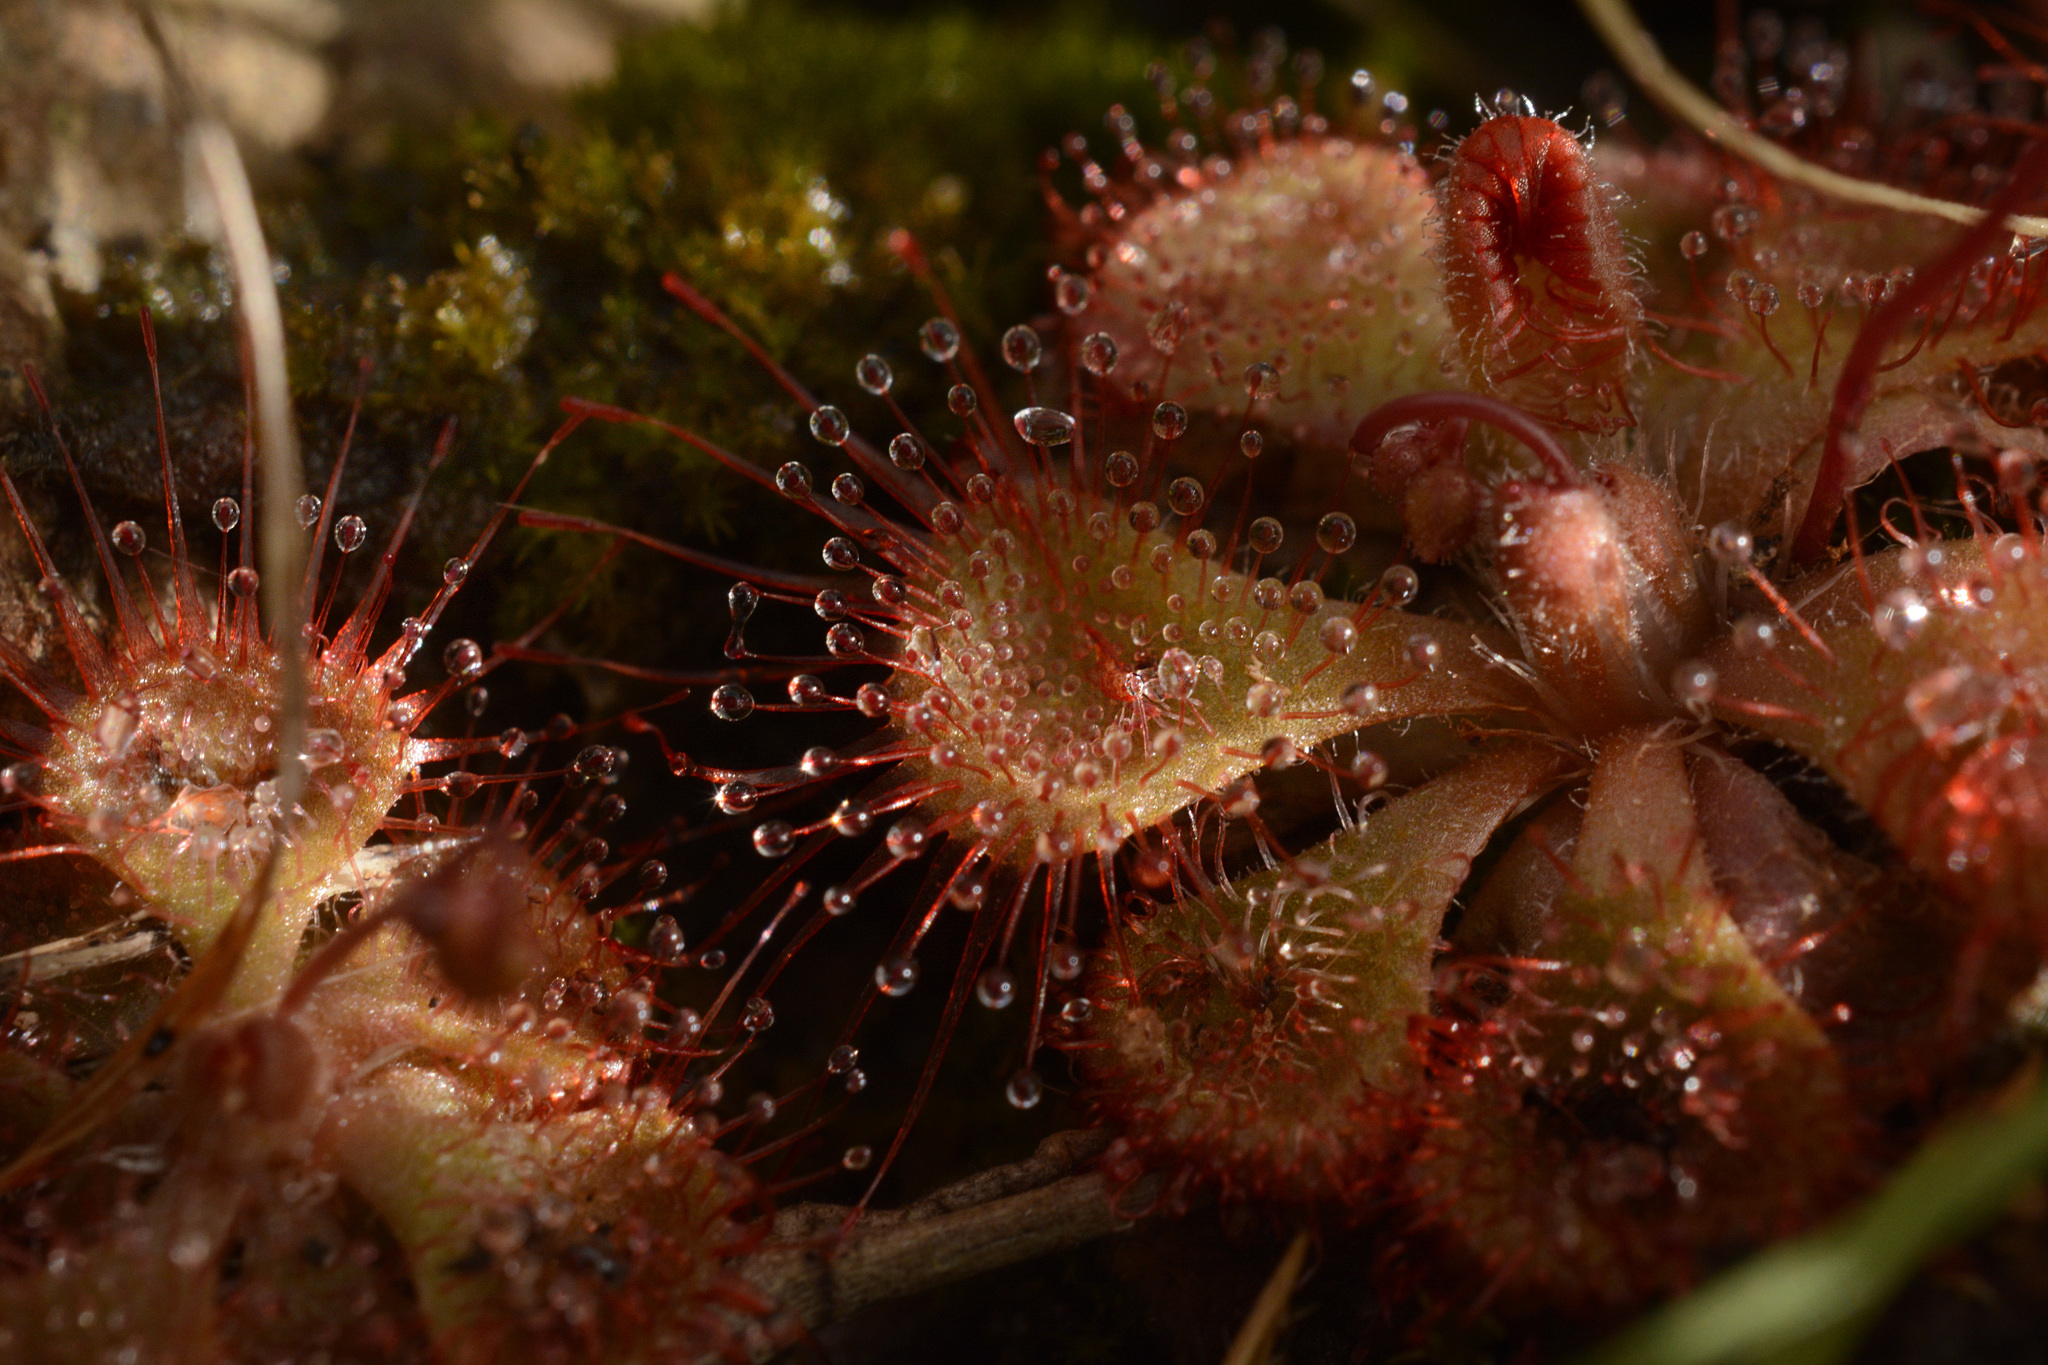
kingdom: Plantae
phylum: Tracheophyta
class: Magnoliopsida
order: Caryophyllales
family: Droseraceae
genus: Drosera
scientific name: Drosera spatulata
